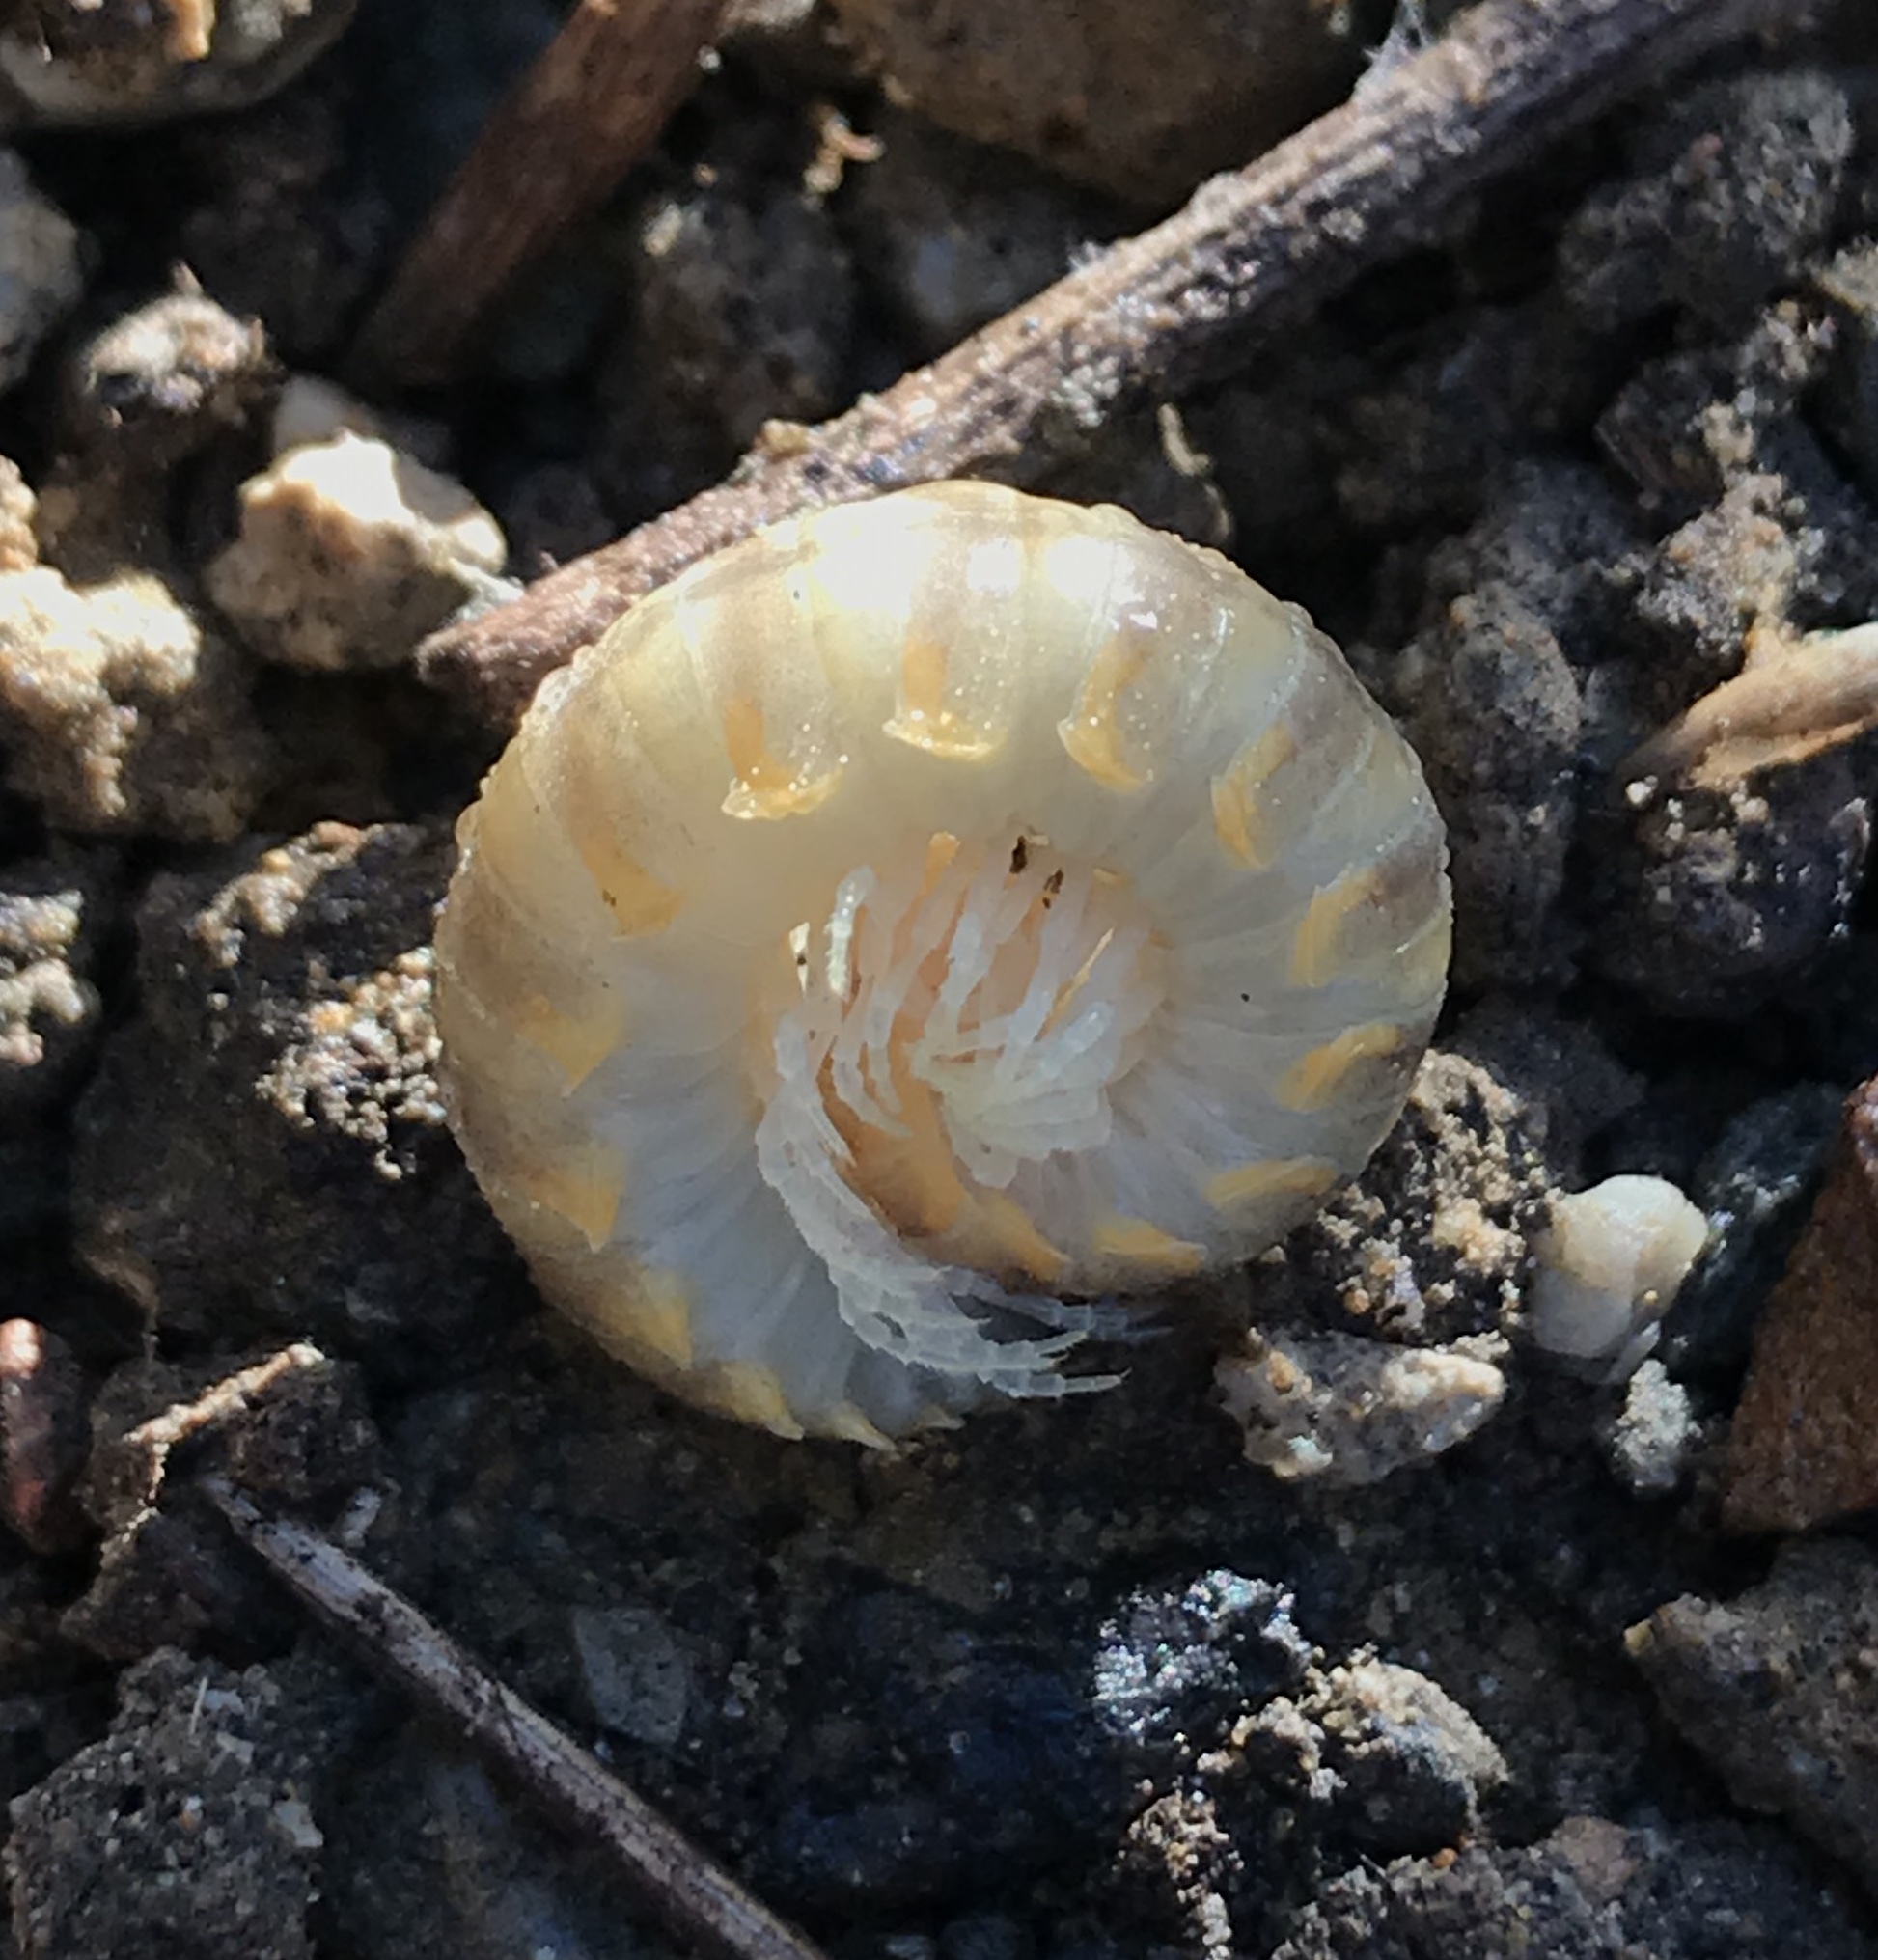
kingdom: Animalia
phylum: Arthropoda
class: Diplopoda
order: Polydesmida
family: Xystodesmidae
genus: Xystocheir
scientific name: Xystocheir dissecta
